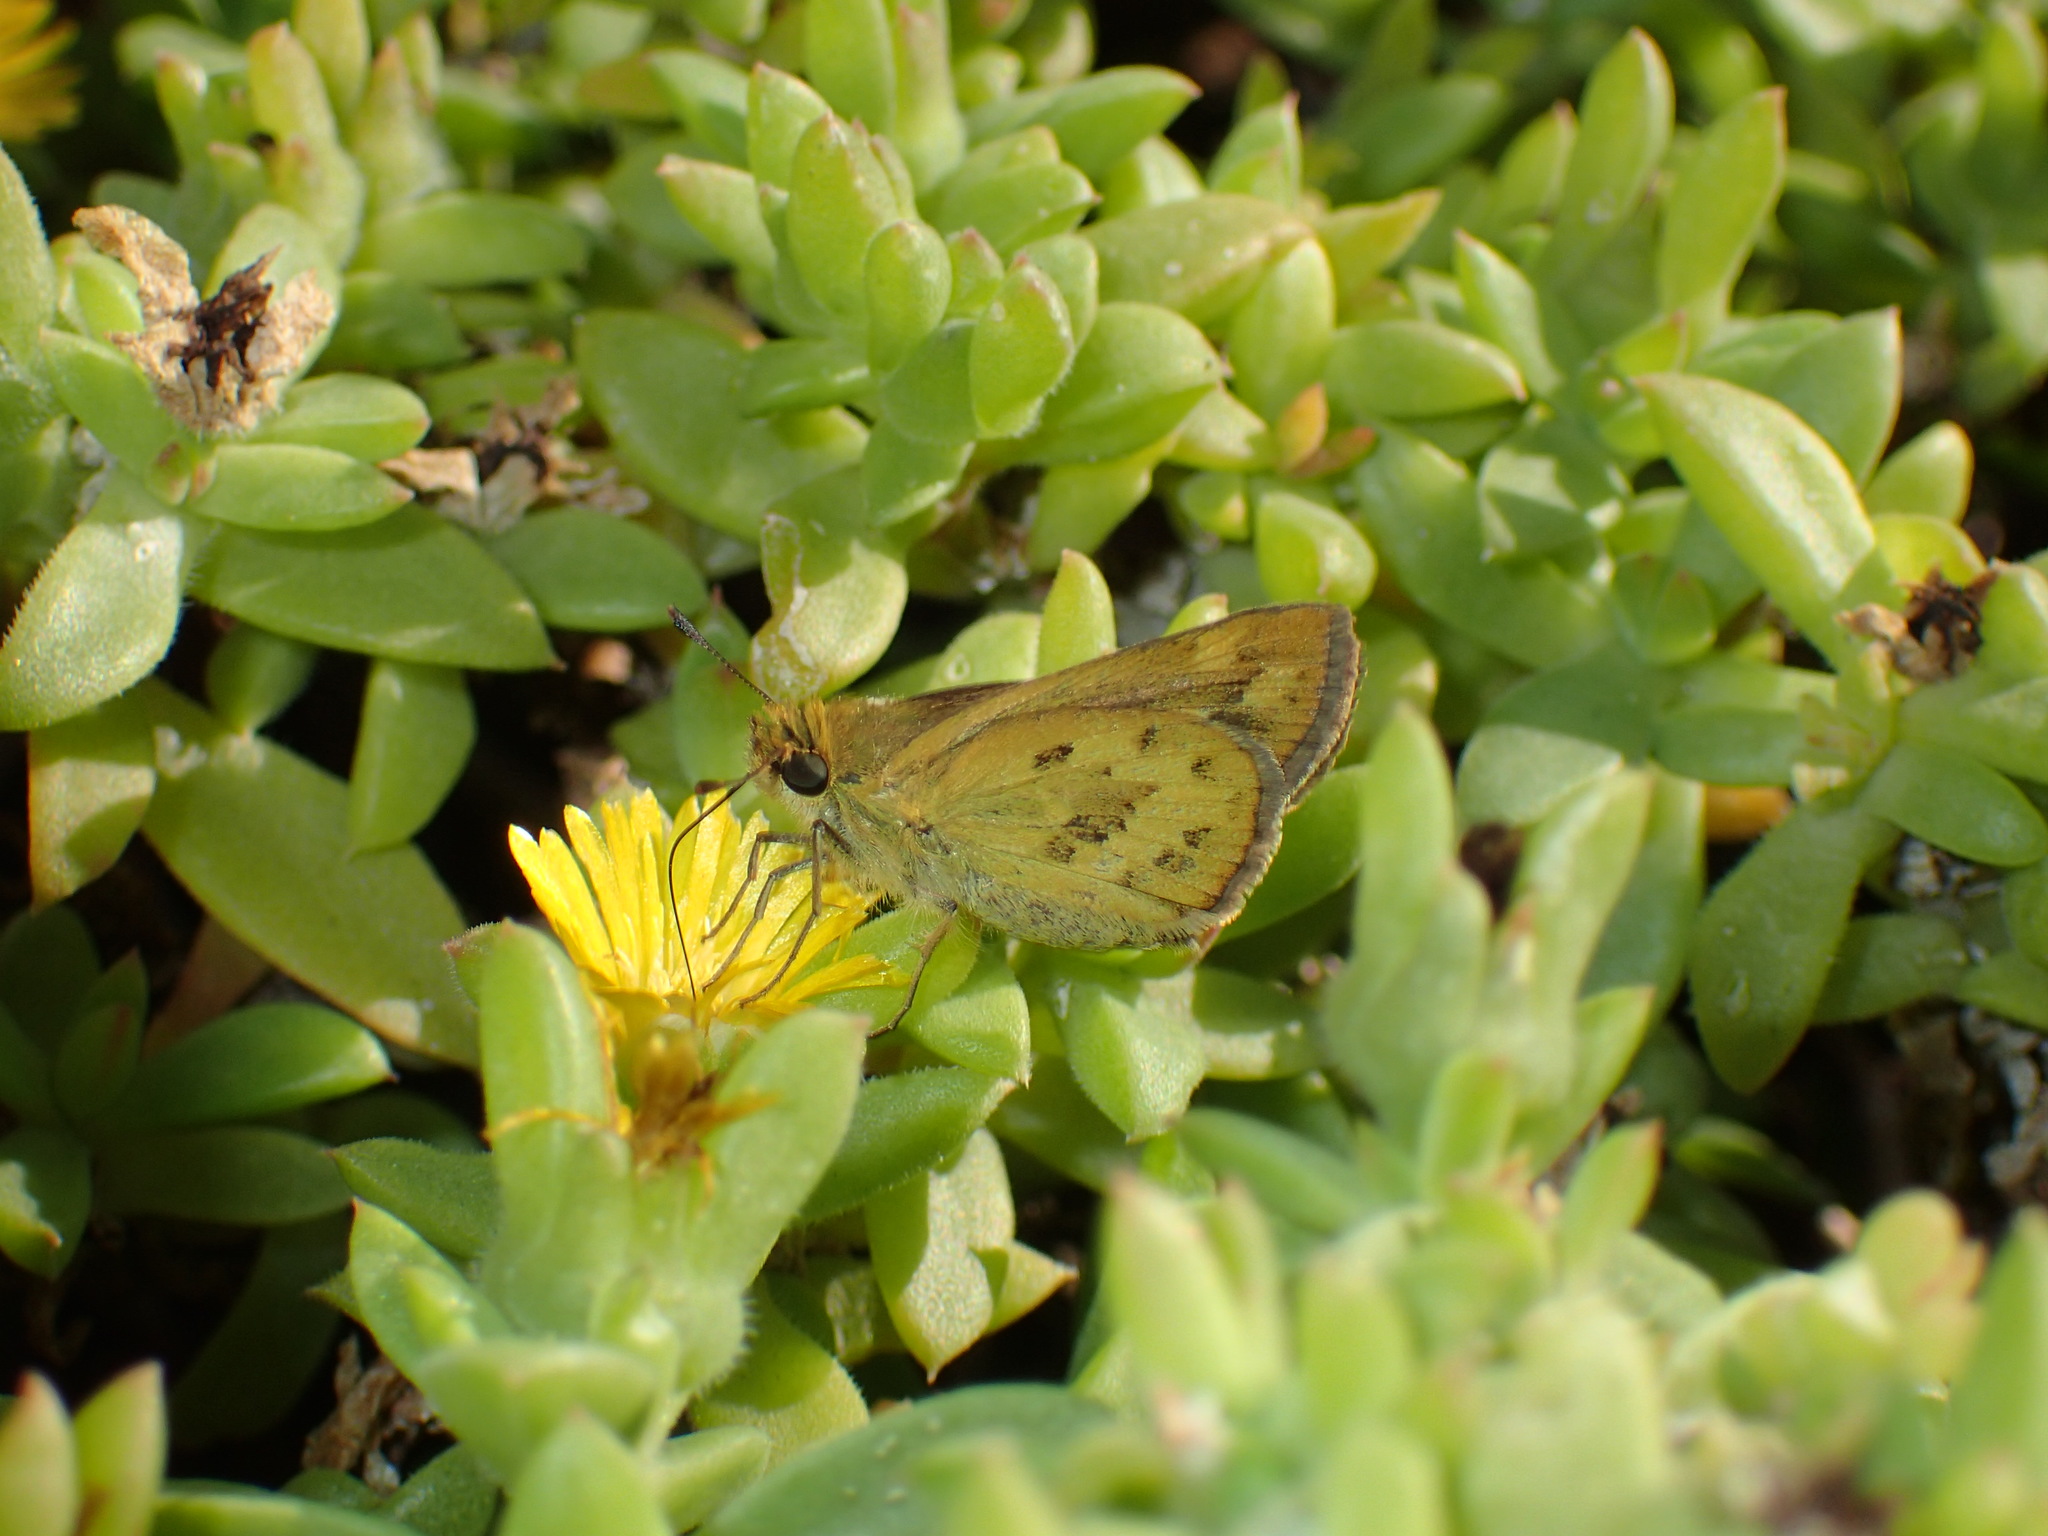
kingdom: Animalia
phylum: Arthropoda
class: Insecta
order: Hymenoptera
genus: Afrogenes
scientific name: Afrogenes
